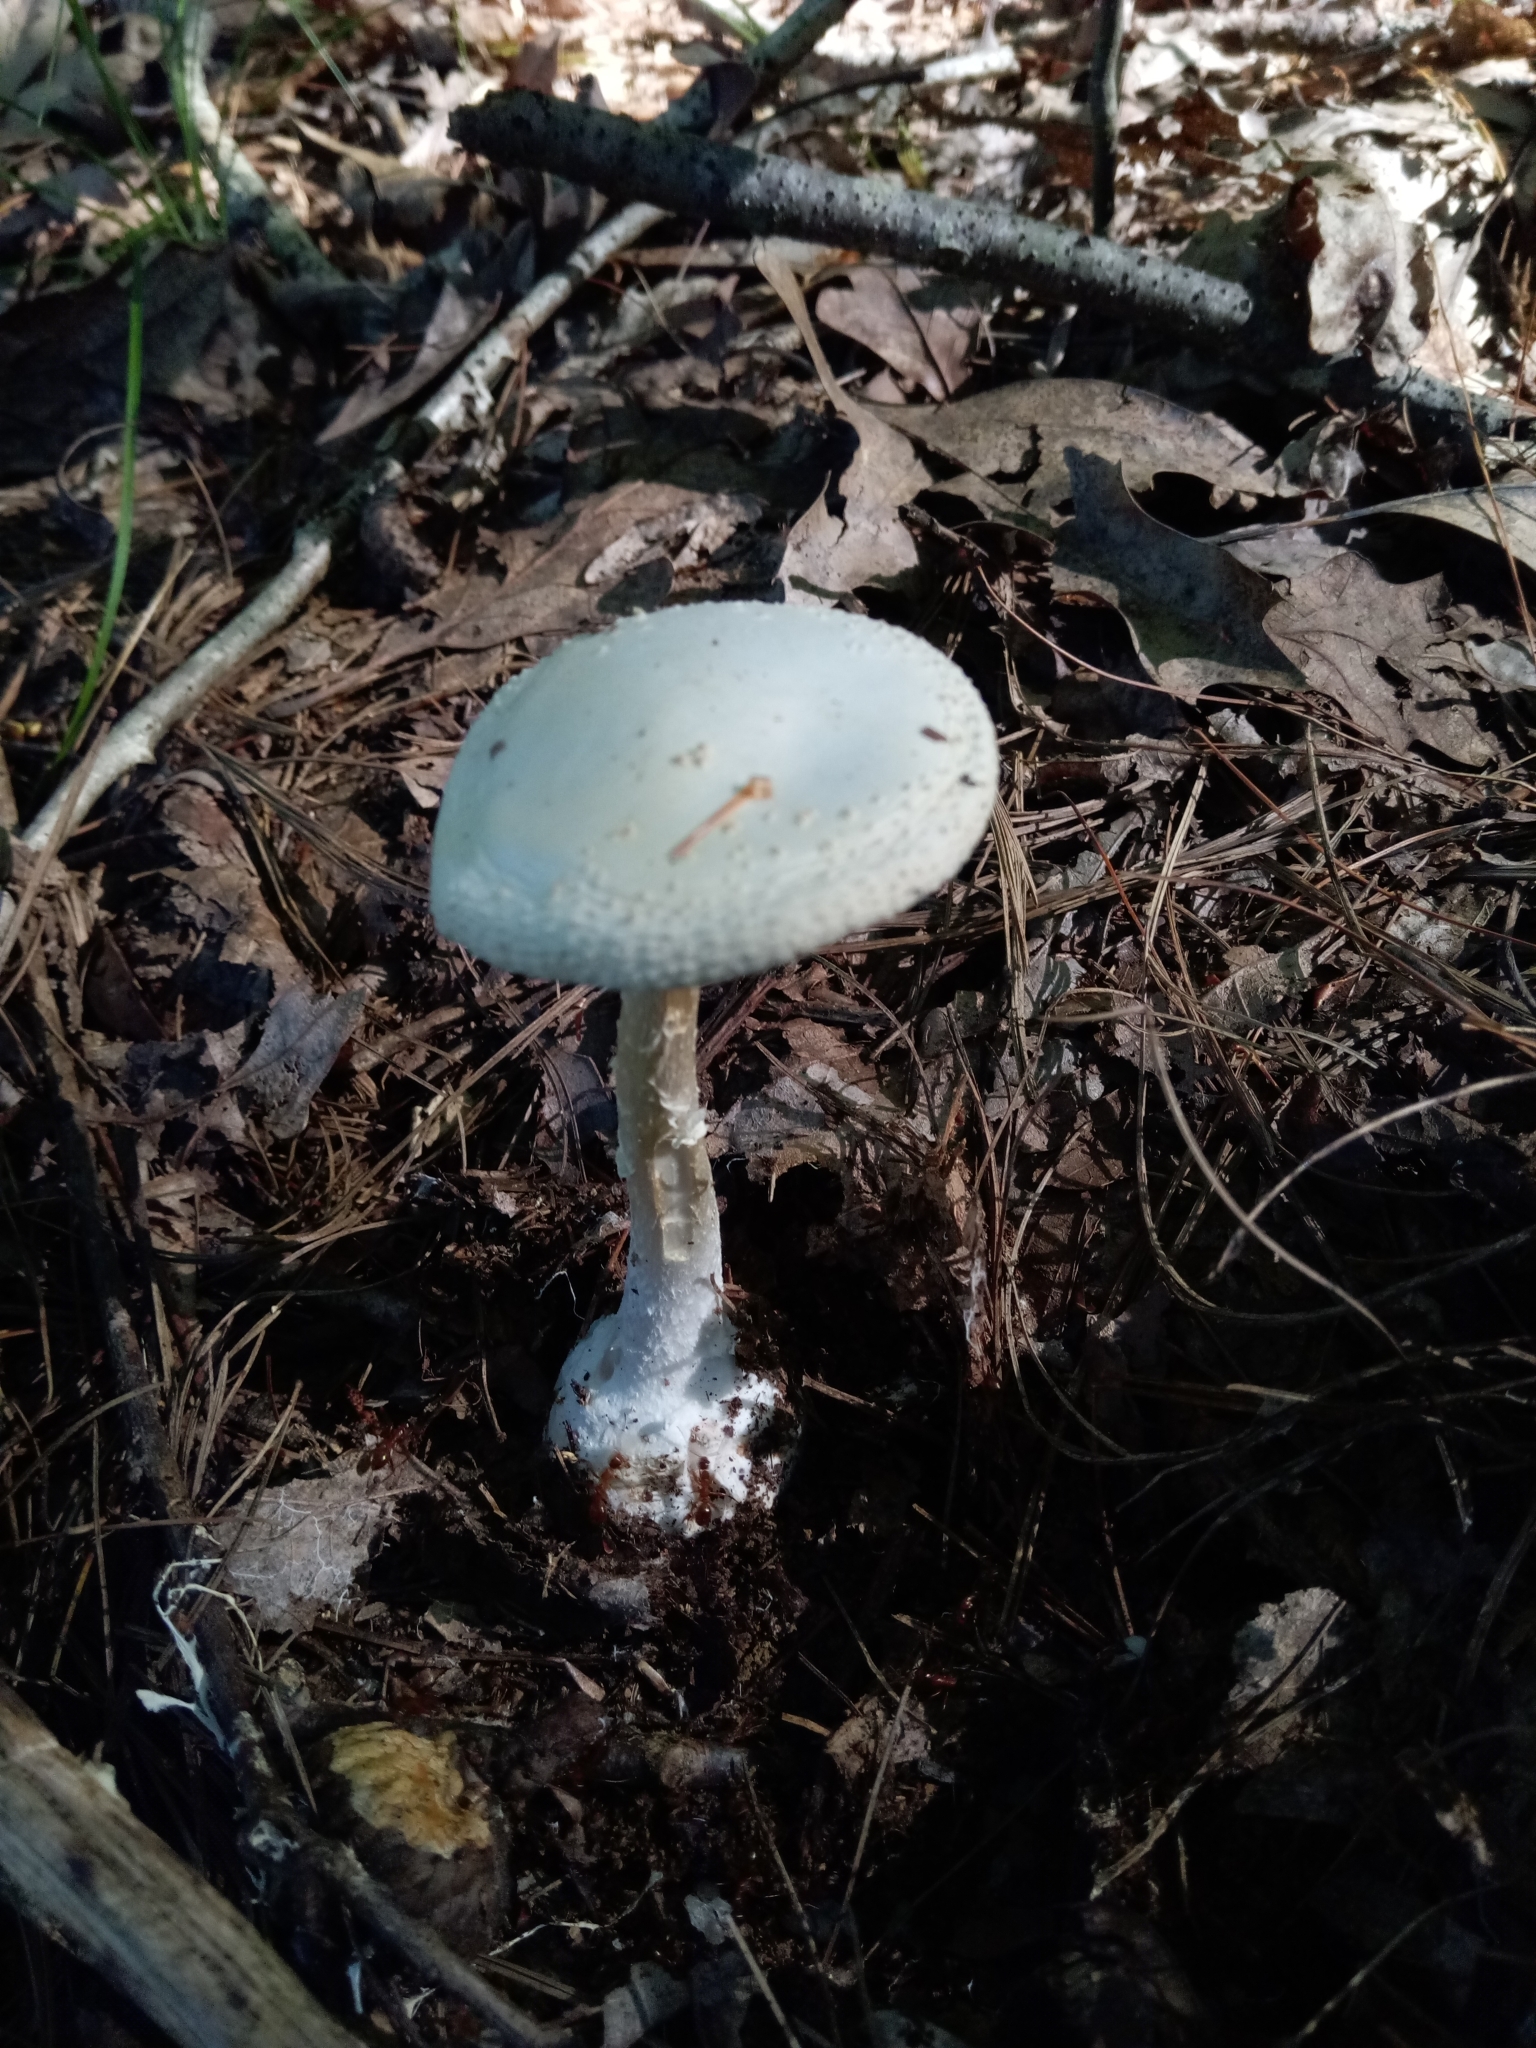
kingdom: Fungi
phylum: Basidiomycota
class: Agaricomycetes
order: Agaricales
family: Amanitaceae
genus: Amanita
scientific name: Amanita abrupta
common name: American abrupt-bulbed lepidella
